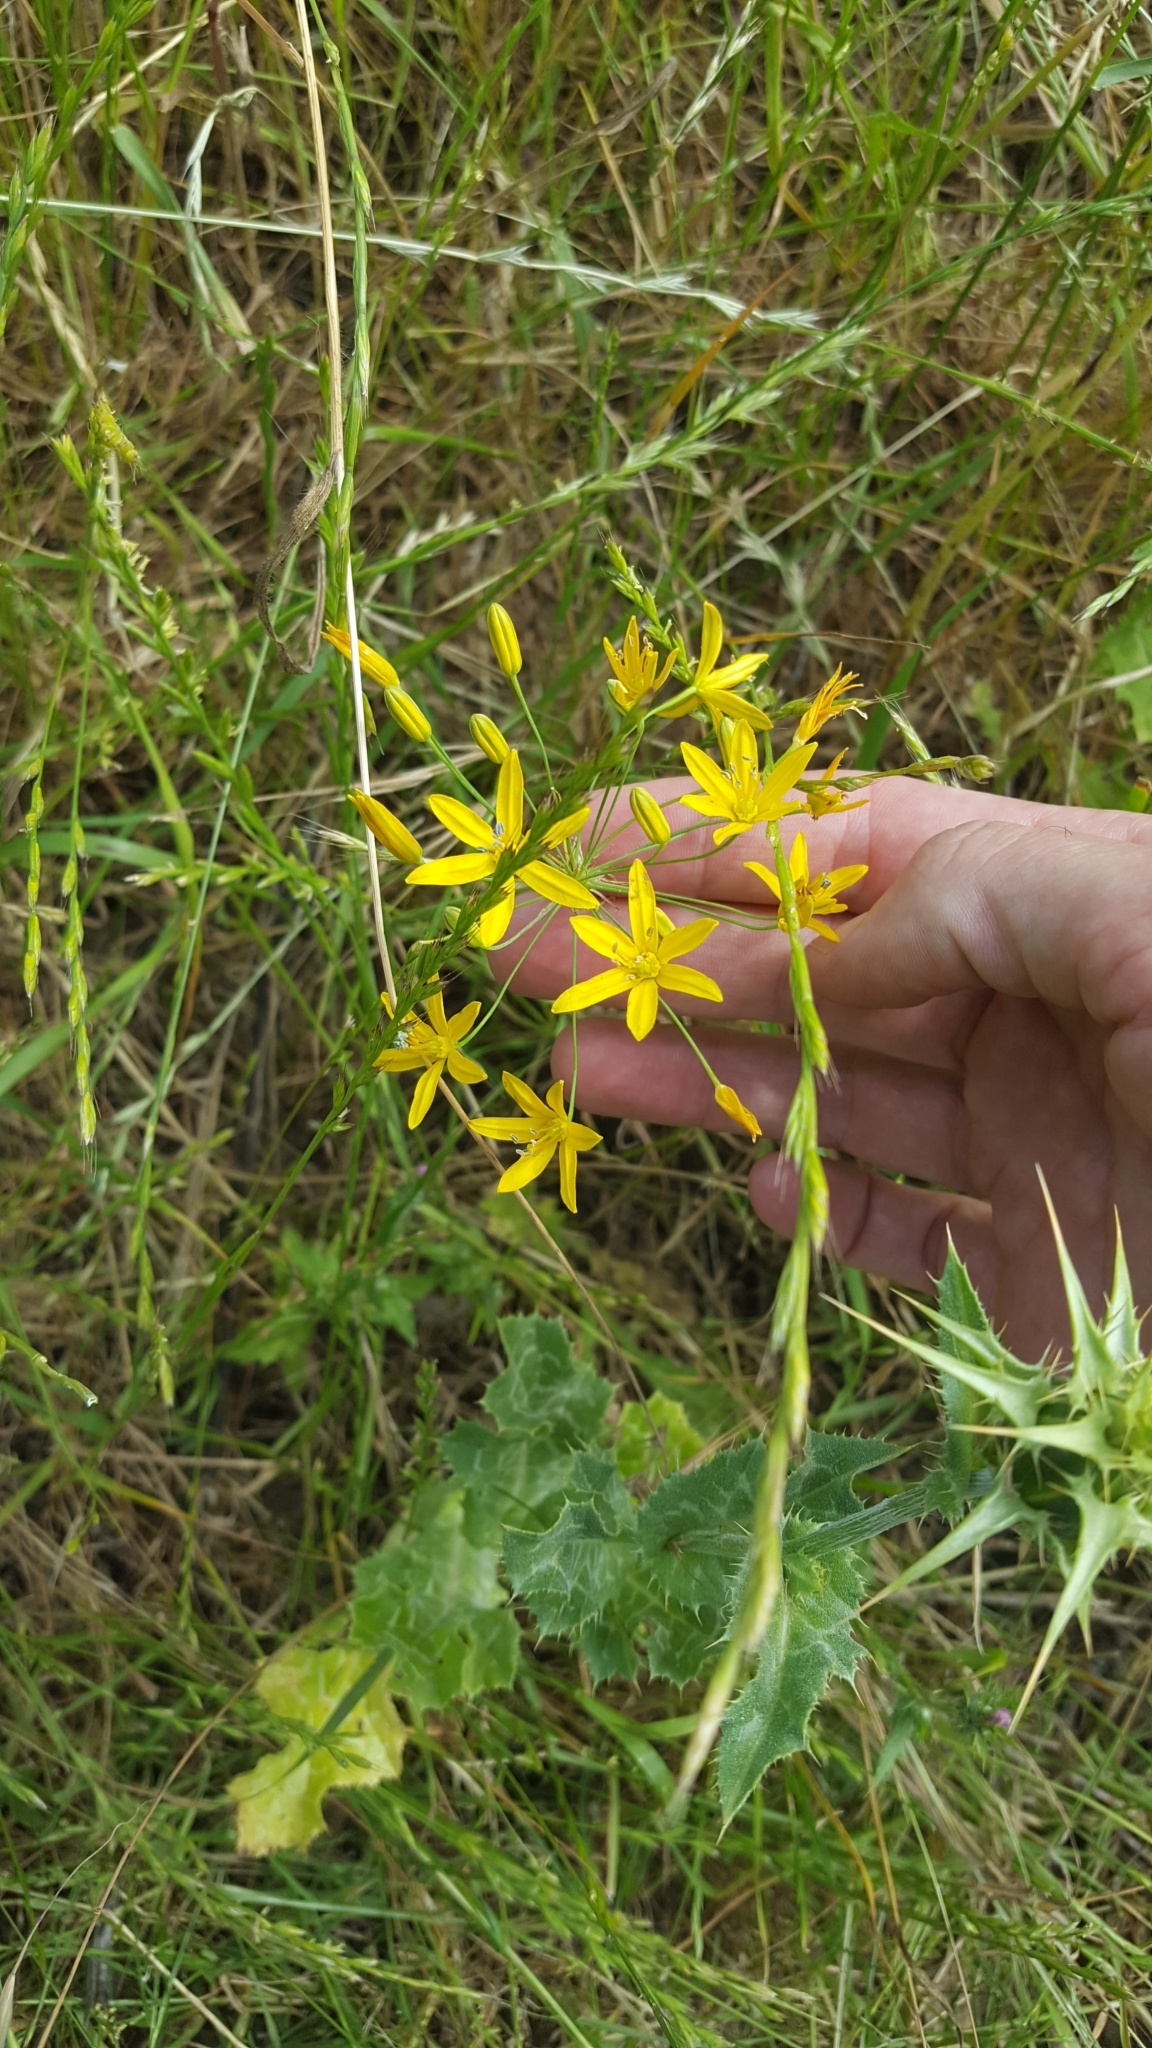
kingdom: Plantae
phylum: Tracheophyta
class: Liliopsida
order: Asparagales
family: Asparagaceae
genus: Bloomeria
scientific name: Bloomeria crocea
